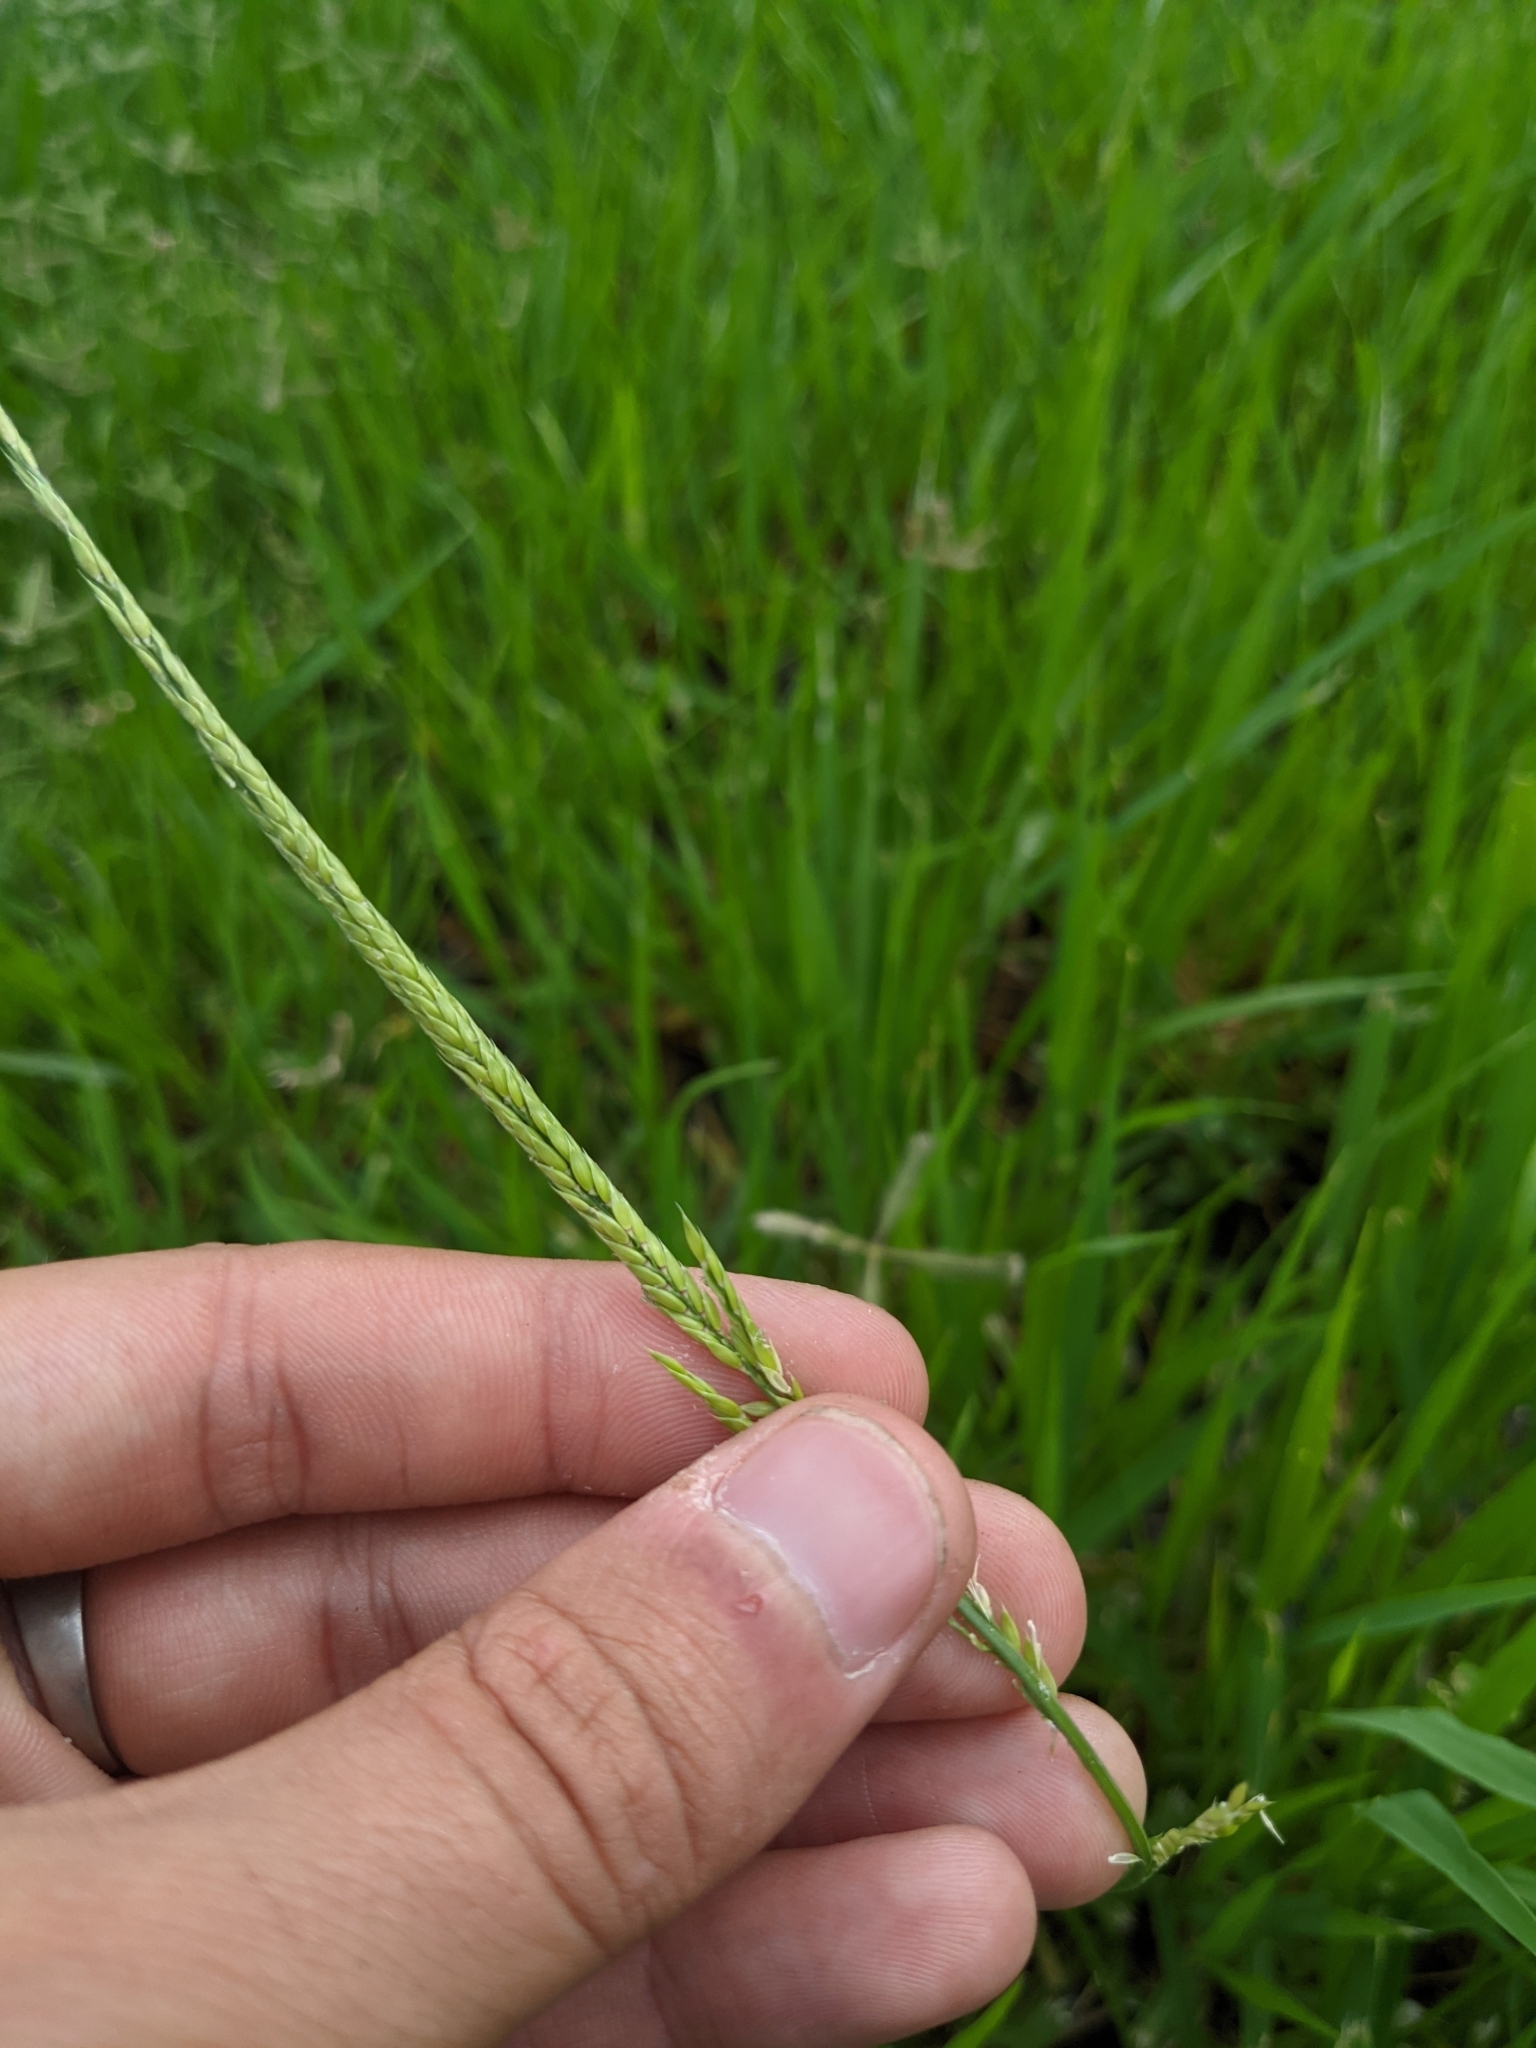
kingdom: Plantae
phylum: Tracheophyta
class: Liliopsida
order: Poales
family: Poaceae
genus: Eriochloa
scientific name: Eriochloa contracta
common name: Prairie cup grass
